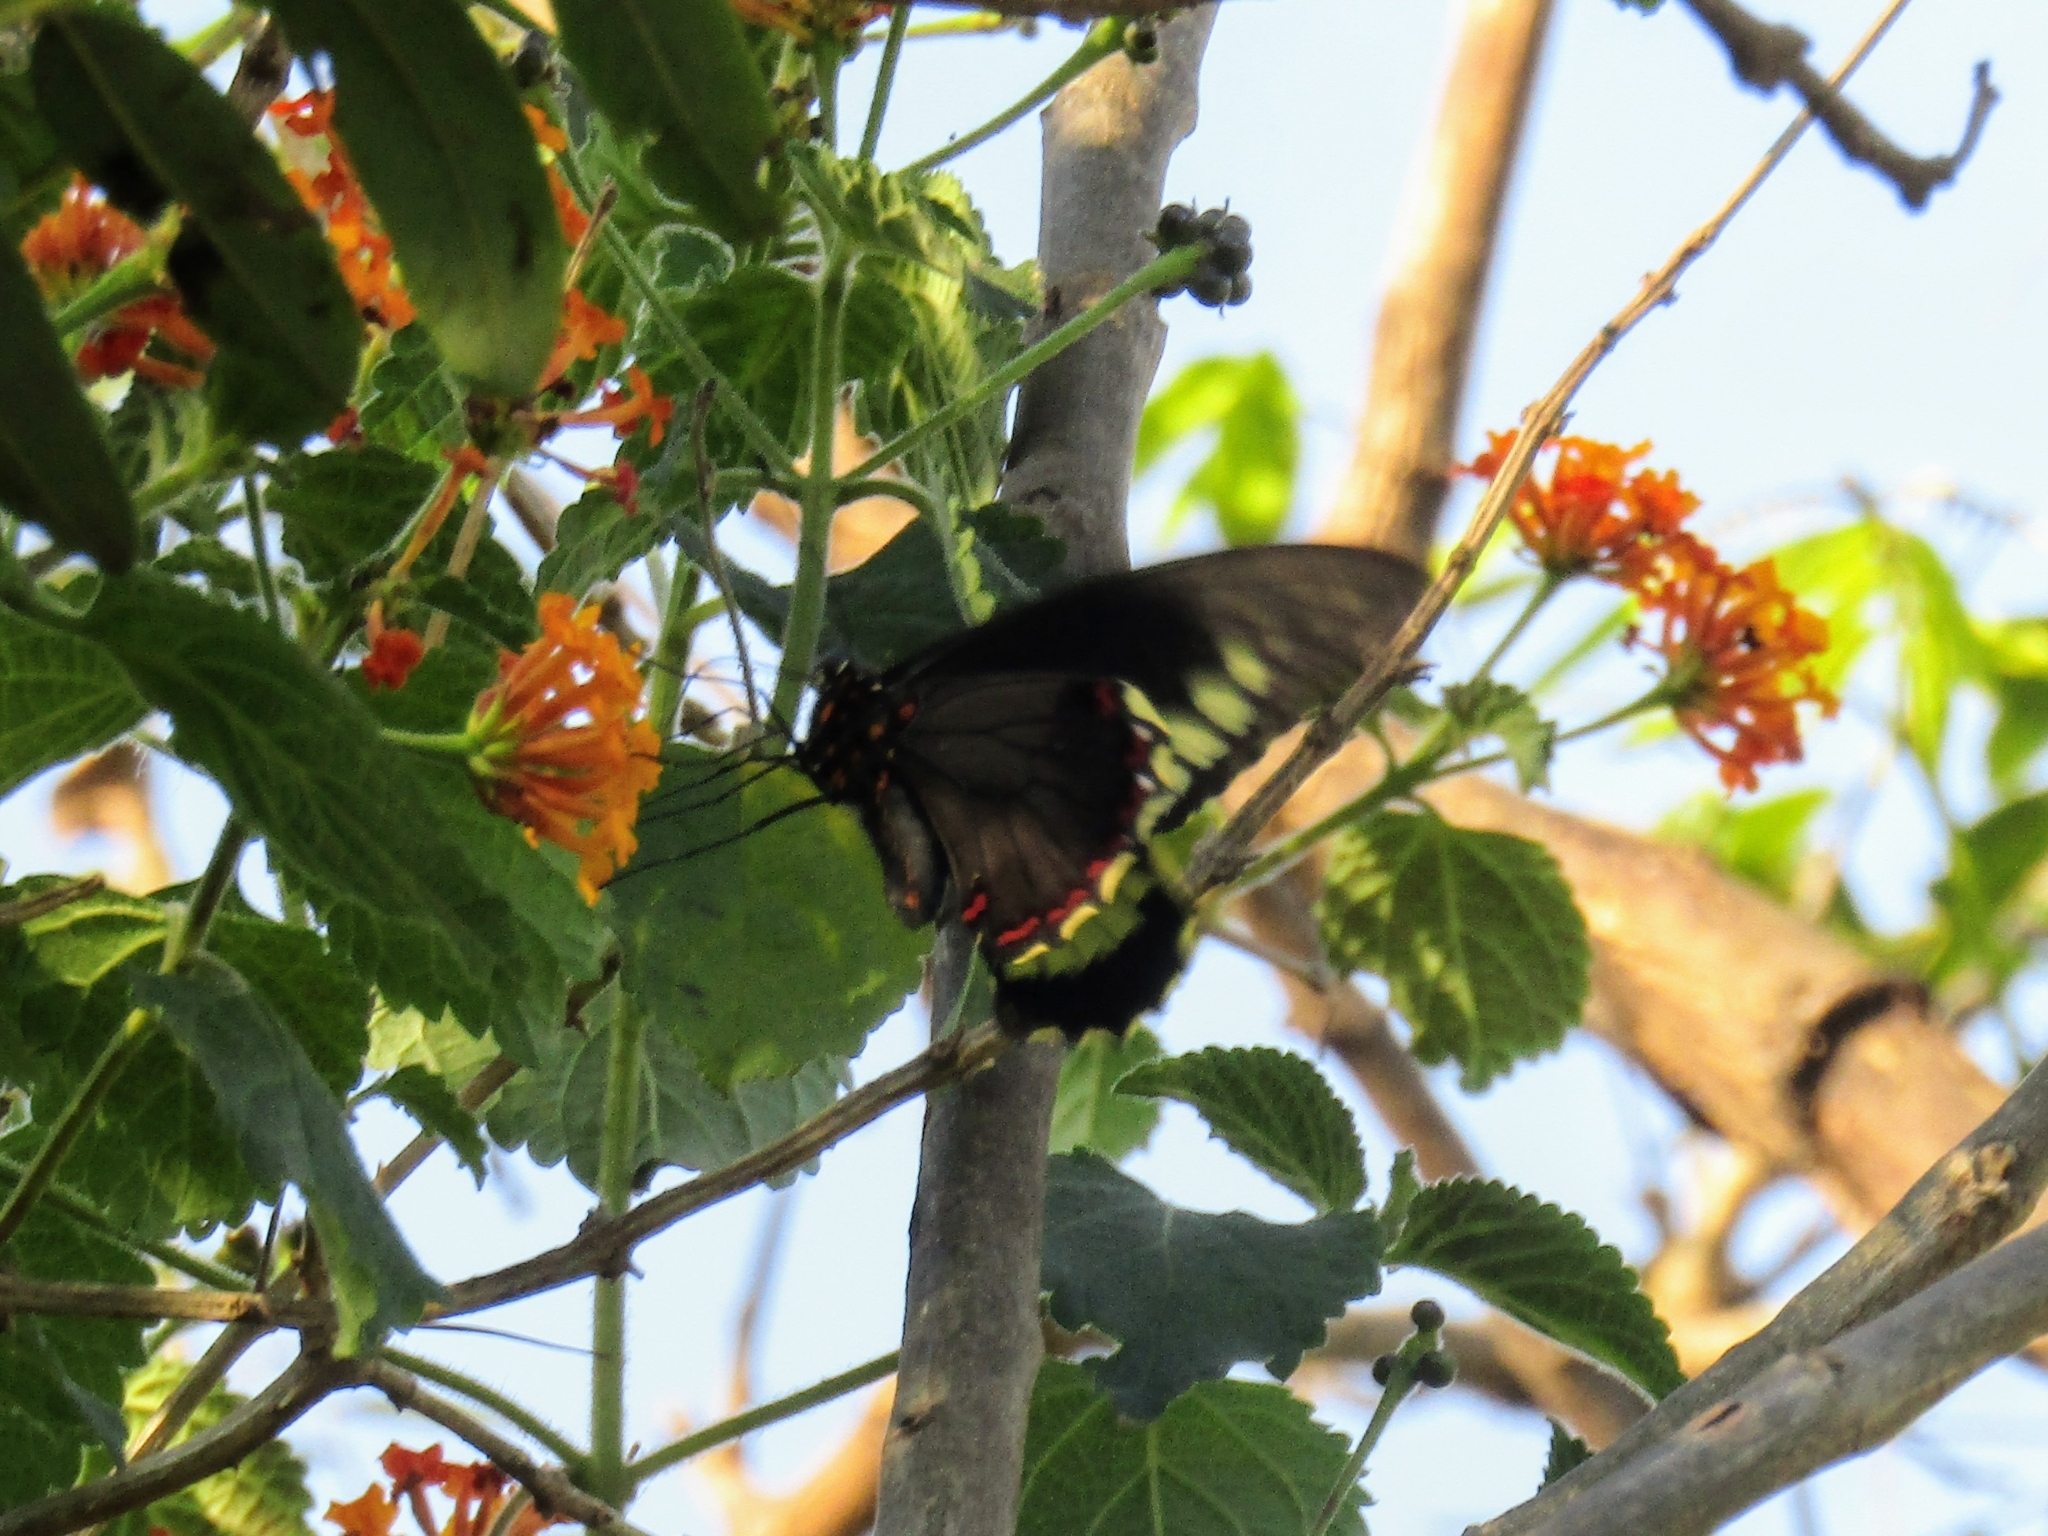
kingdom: Animalia
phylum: Arthropoda
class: Insecta
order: Lepidoptera
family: Papilionidae
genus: Battus
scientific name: Battus polydamas
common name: Polydamas swallowtail
